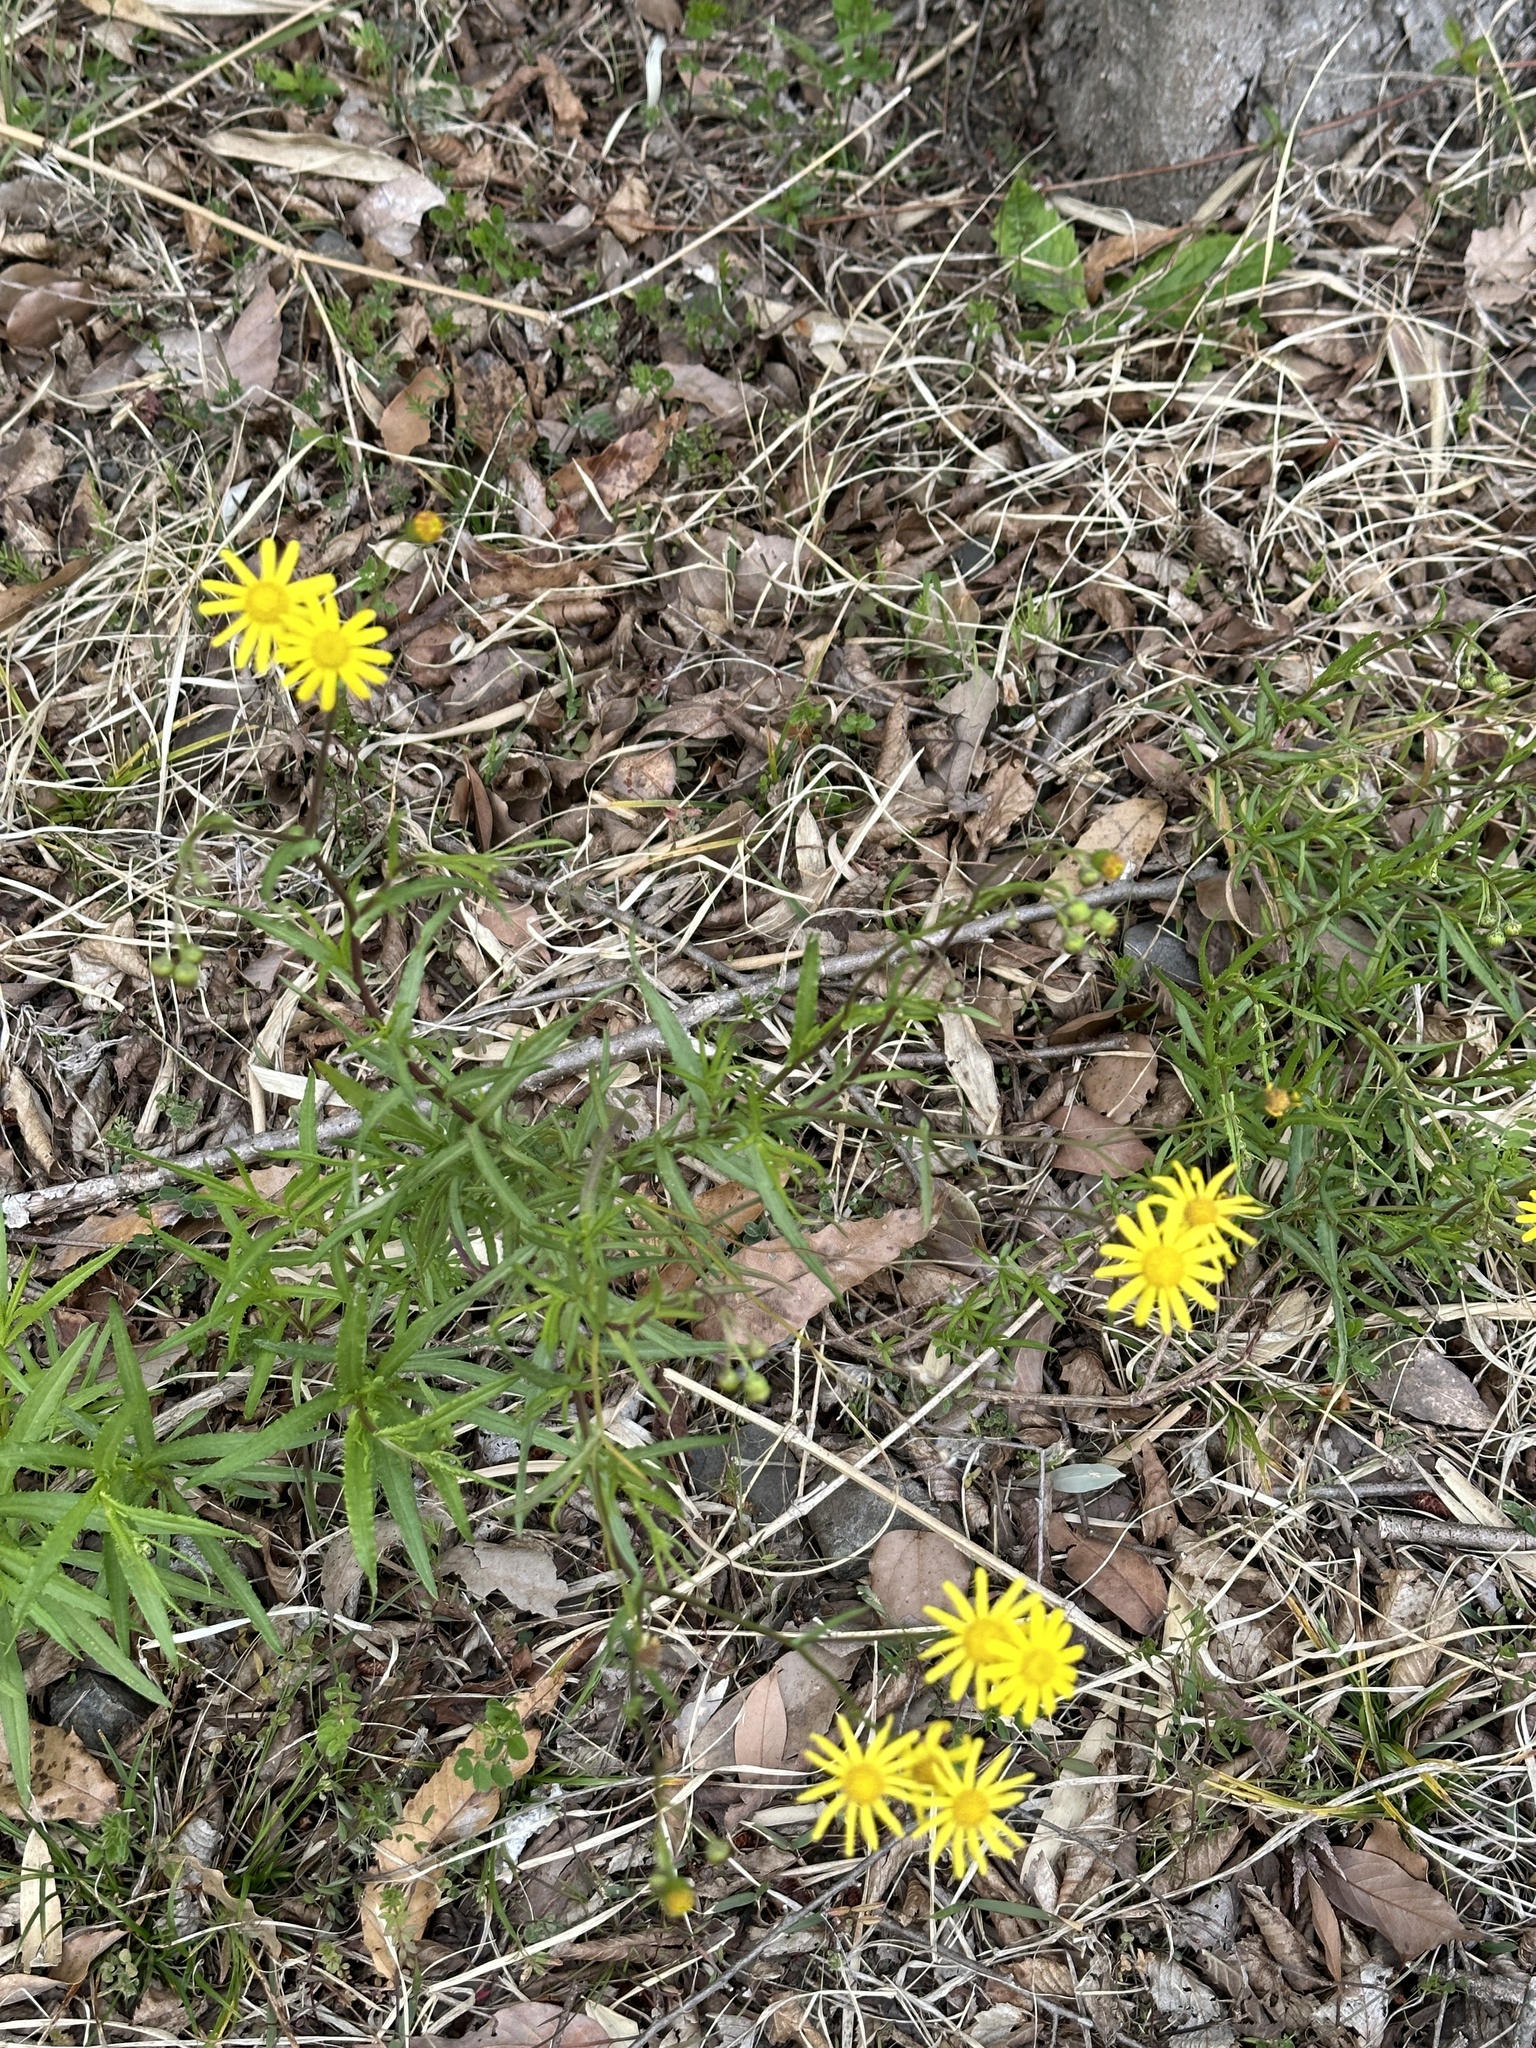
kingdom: Plantae
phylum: Tracheophyta
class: Magnoliopsida
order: Asterales
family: Asteraceae
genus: Senecio
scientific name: Senecio madagascariensis
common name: Madagascar ragwort
